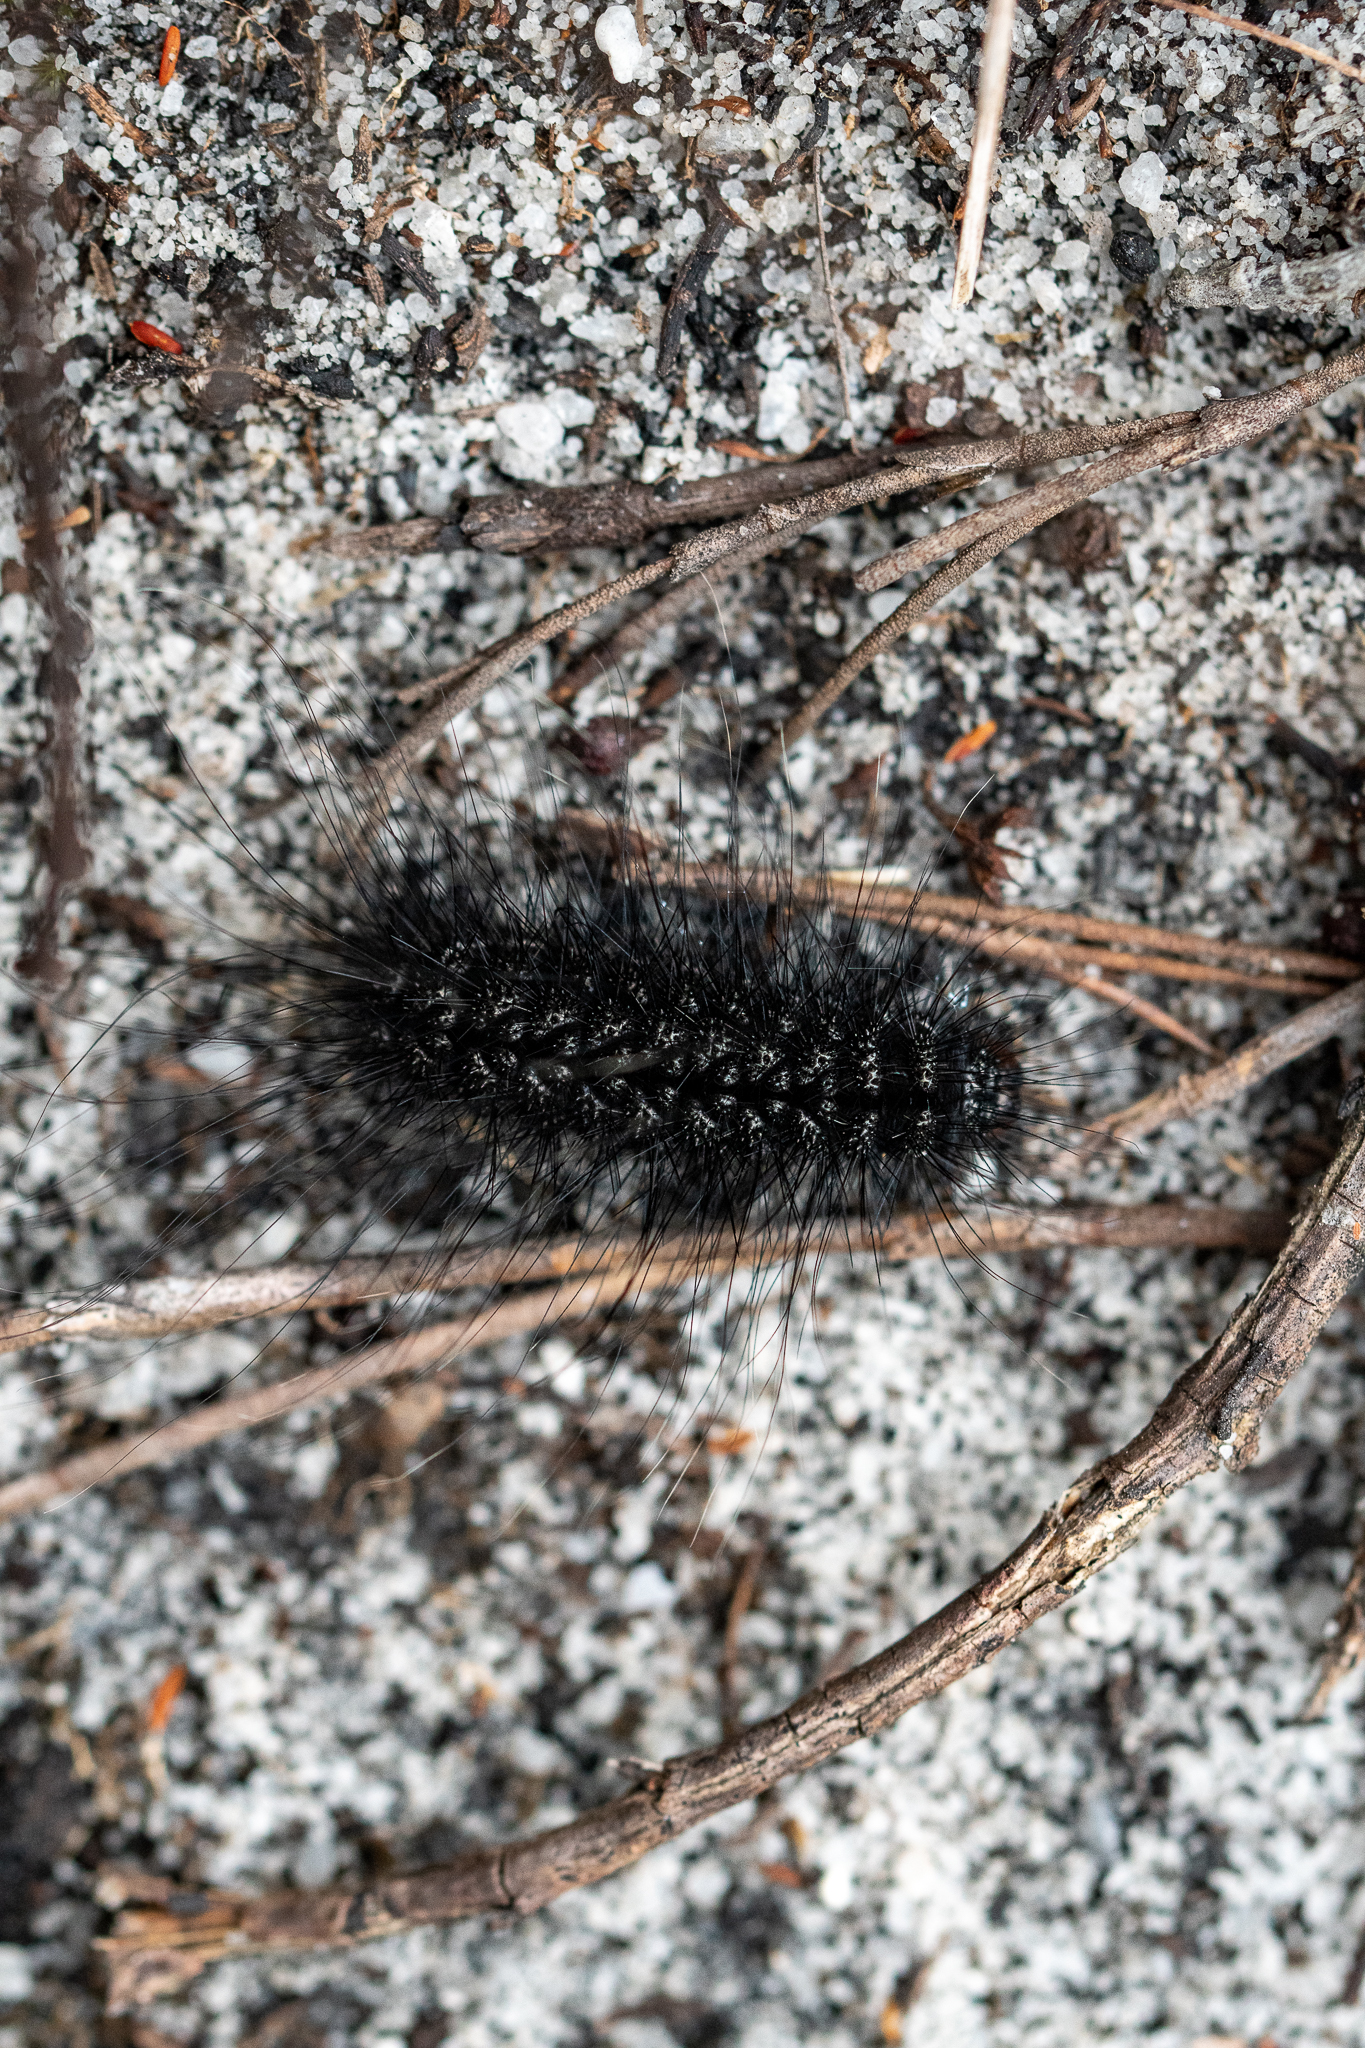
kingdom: Animalia
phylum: Arthropoda
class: Insecta
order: Lepidoptera
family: Erebidae
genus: Thyretes
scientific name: Thyretes hippotes
